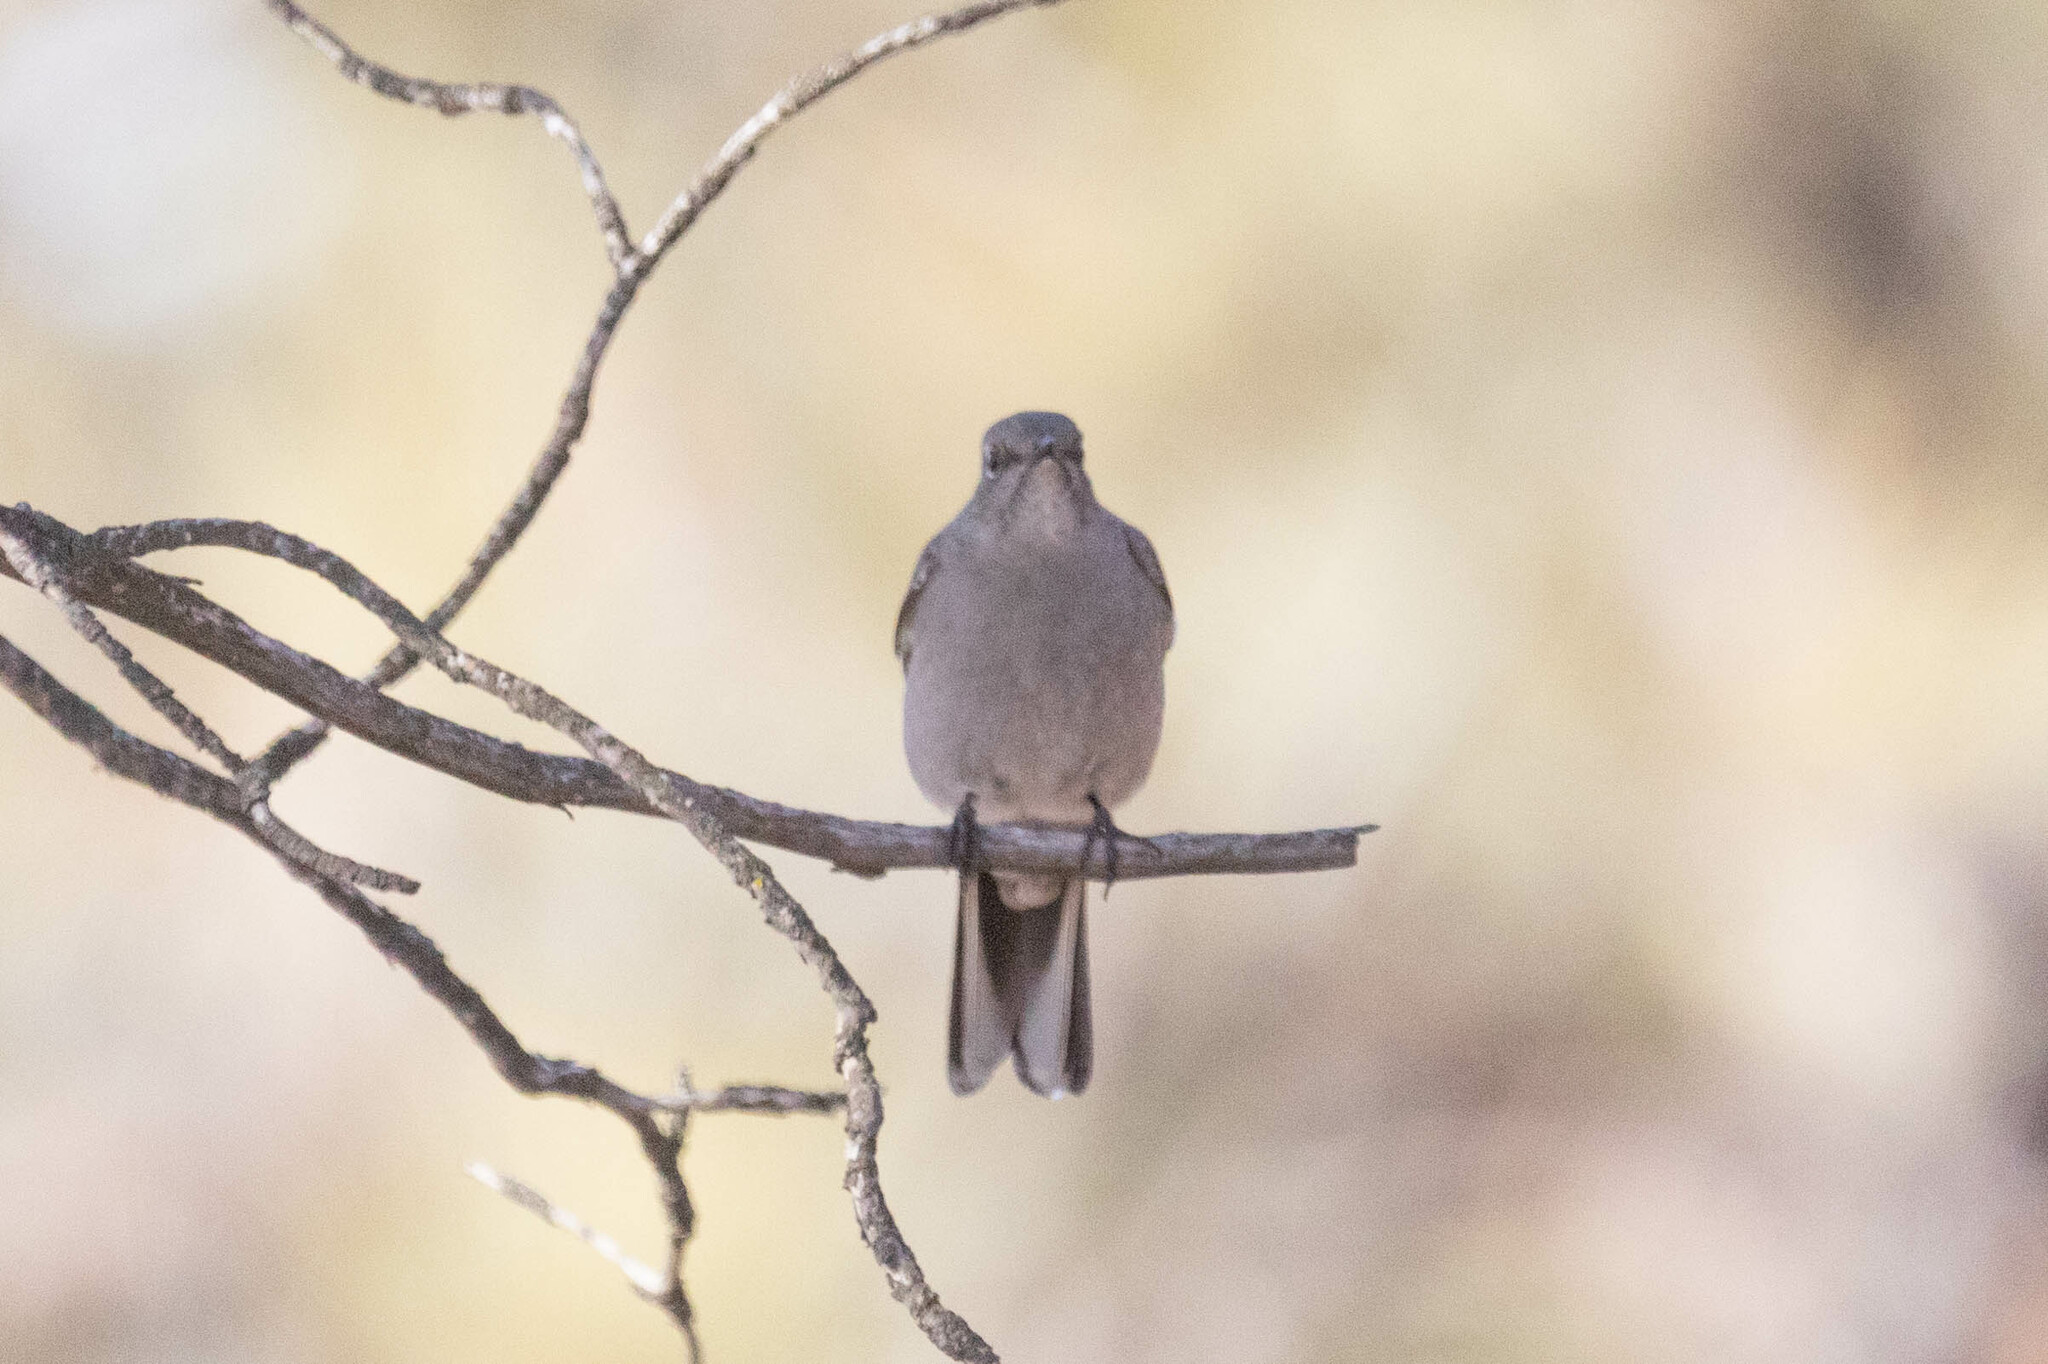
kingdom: Animalia
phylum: Chordata
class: Aves
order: Passeriformes
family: Turdidae
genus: Myadestes
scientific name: Myadestes townsendi
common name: Townsend's solitaire
